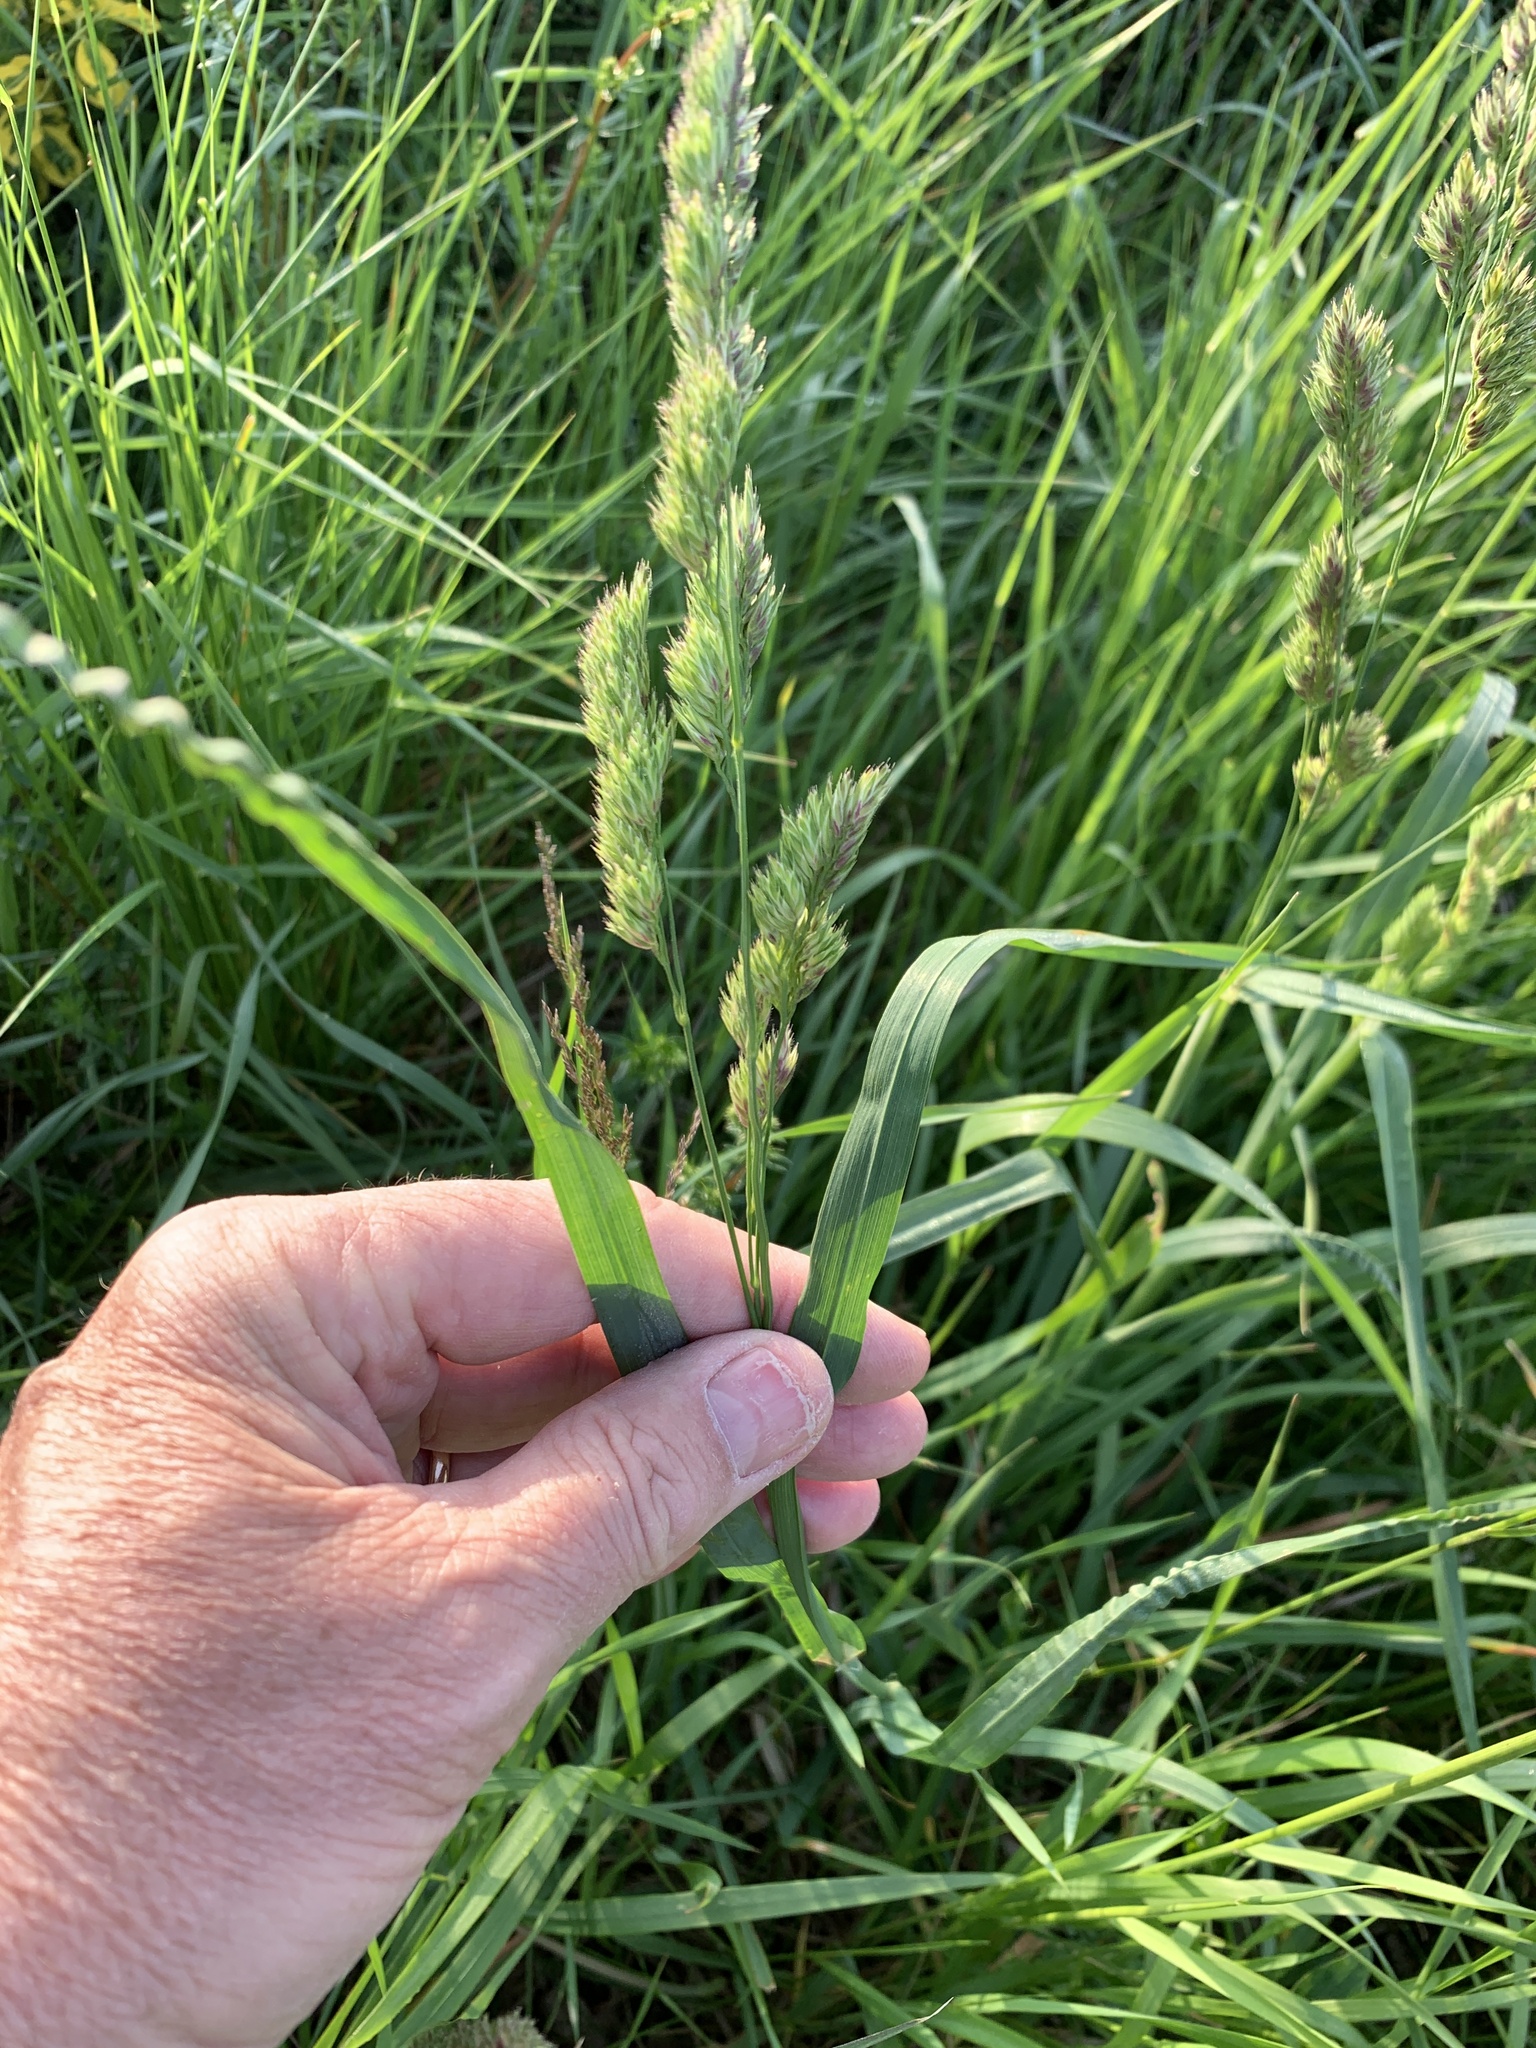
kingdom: Plantae
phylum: Tracheophyta
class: Liliopsida
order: Poales
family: Poaceae
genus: Dactylis
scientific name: Dactylis glomerata
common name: Orchardgrass
